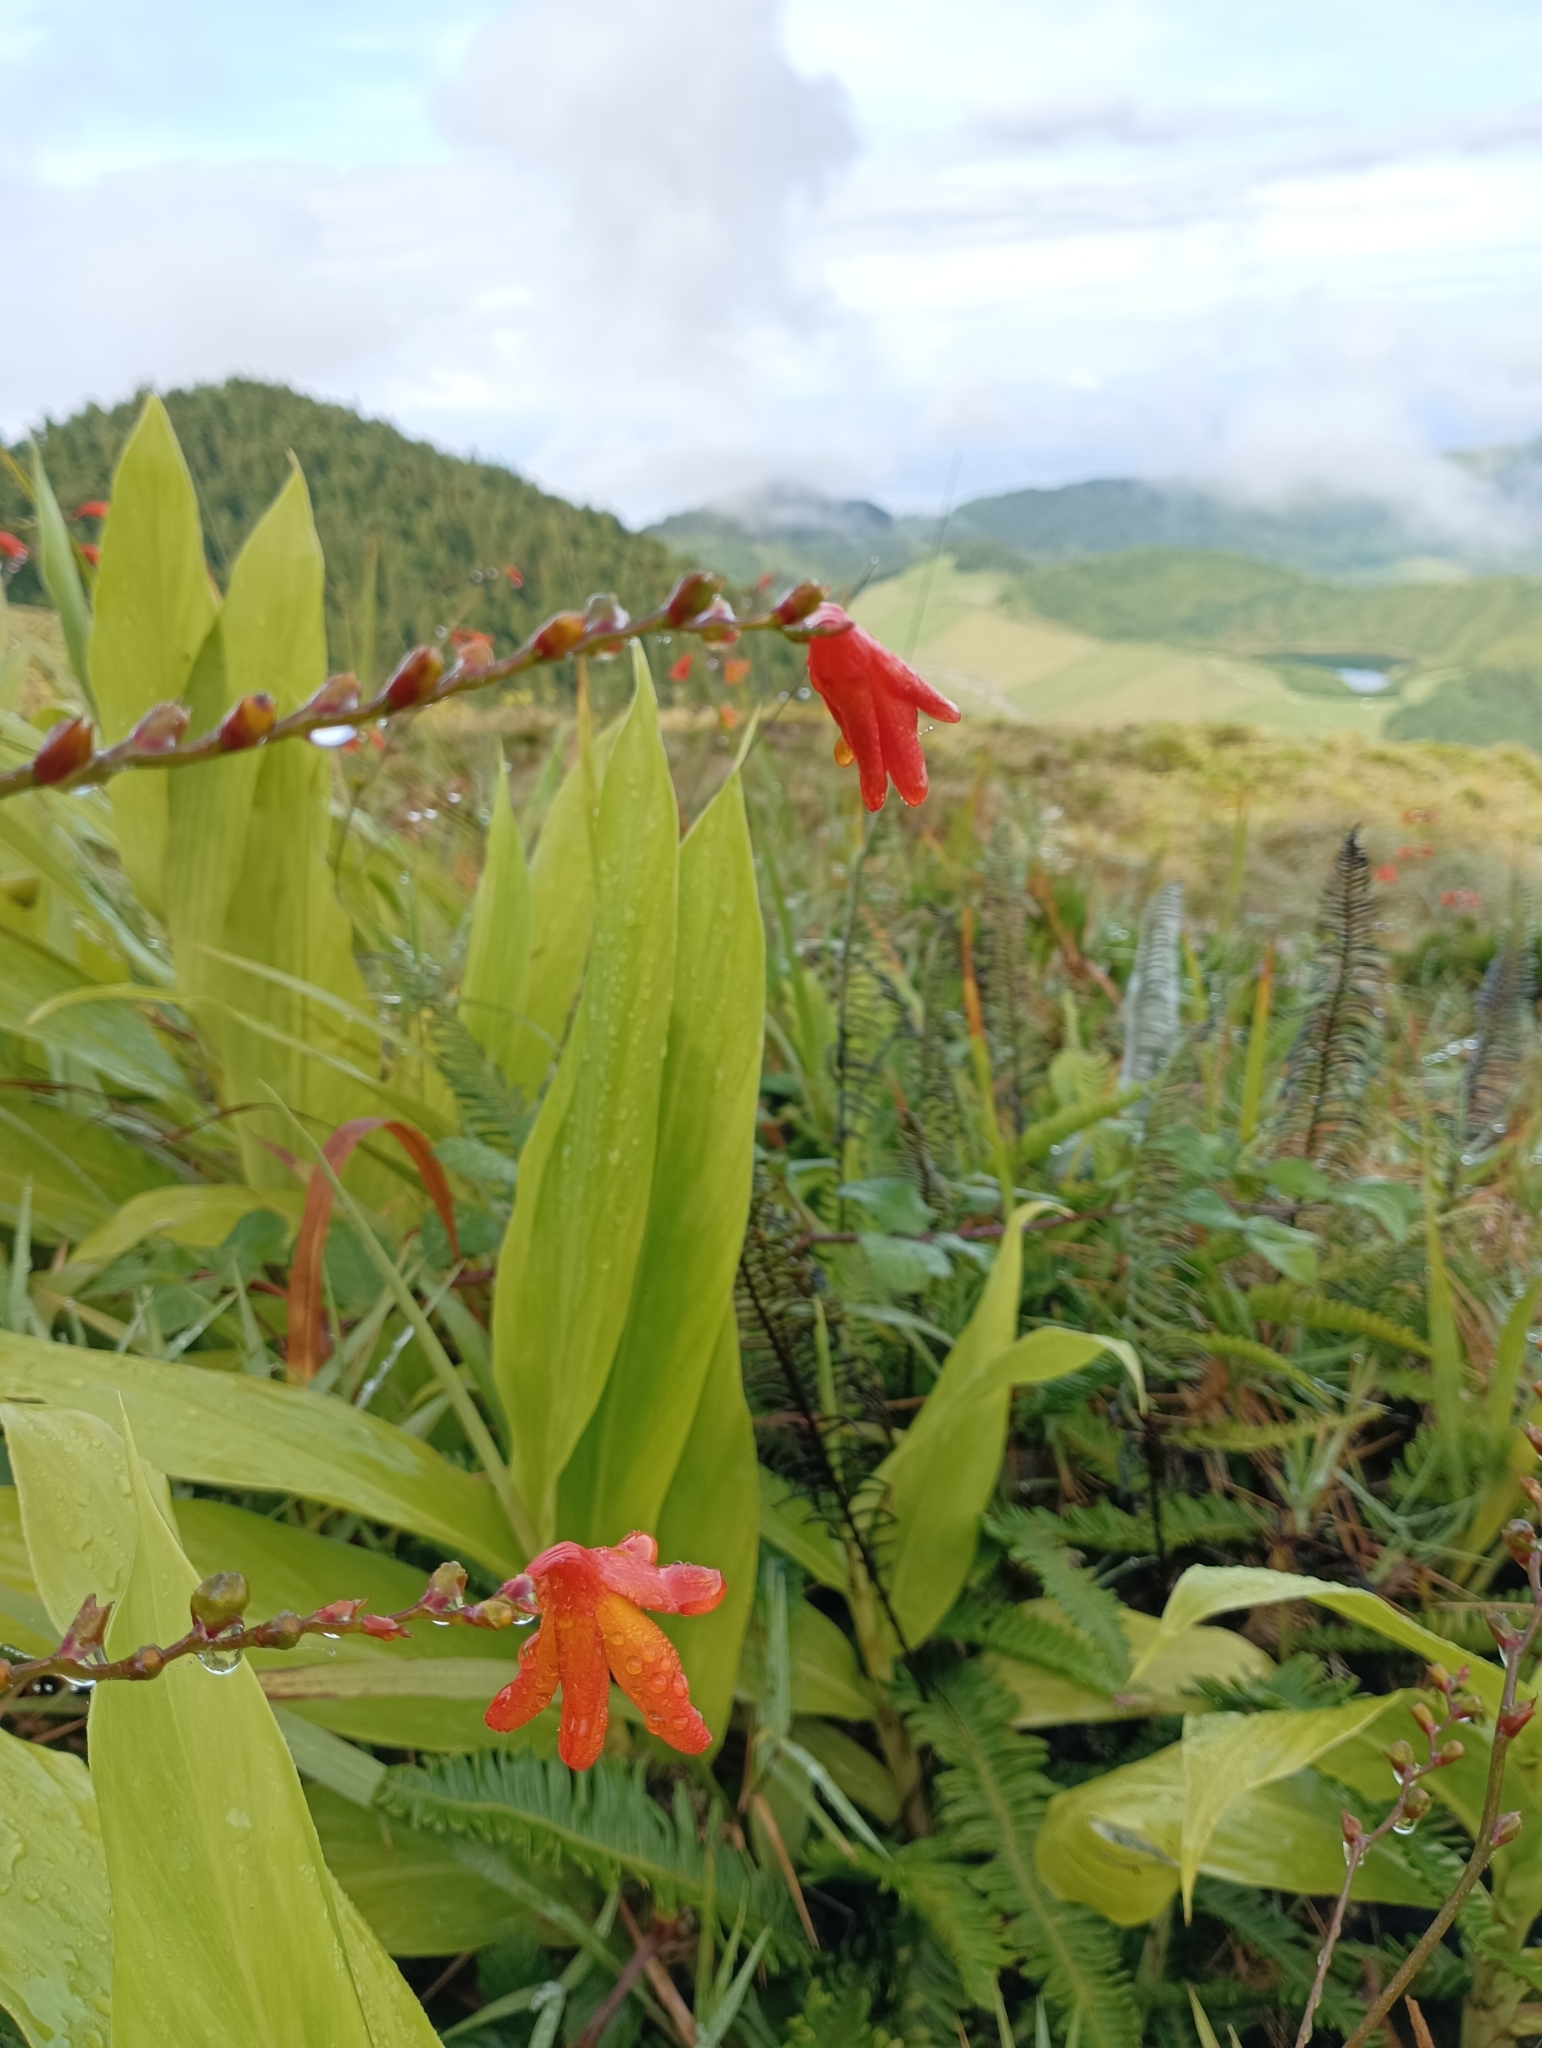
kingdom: Plantae
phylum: Tracheophyta
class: Liliopsida
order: Asparagales
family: Iridaceae
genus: Crocosmia
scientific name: Crocosmia crocosmiiflora
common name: Montbretia
